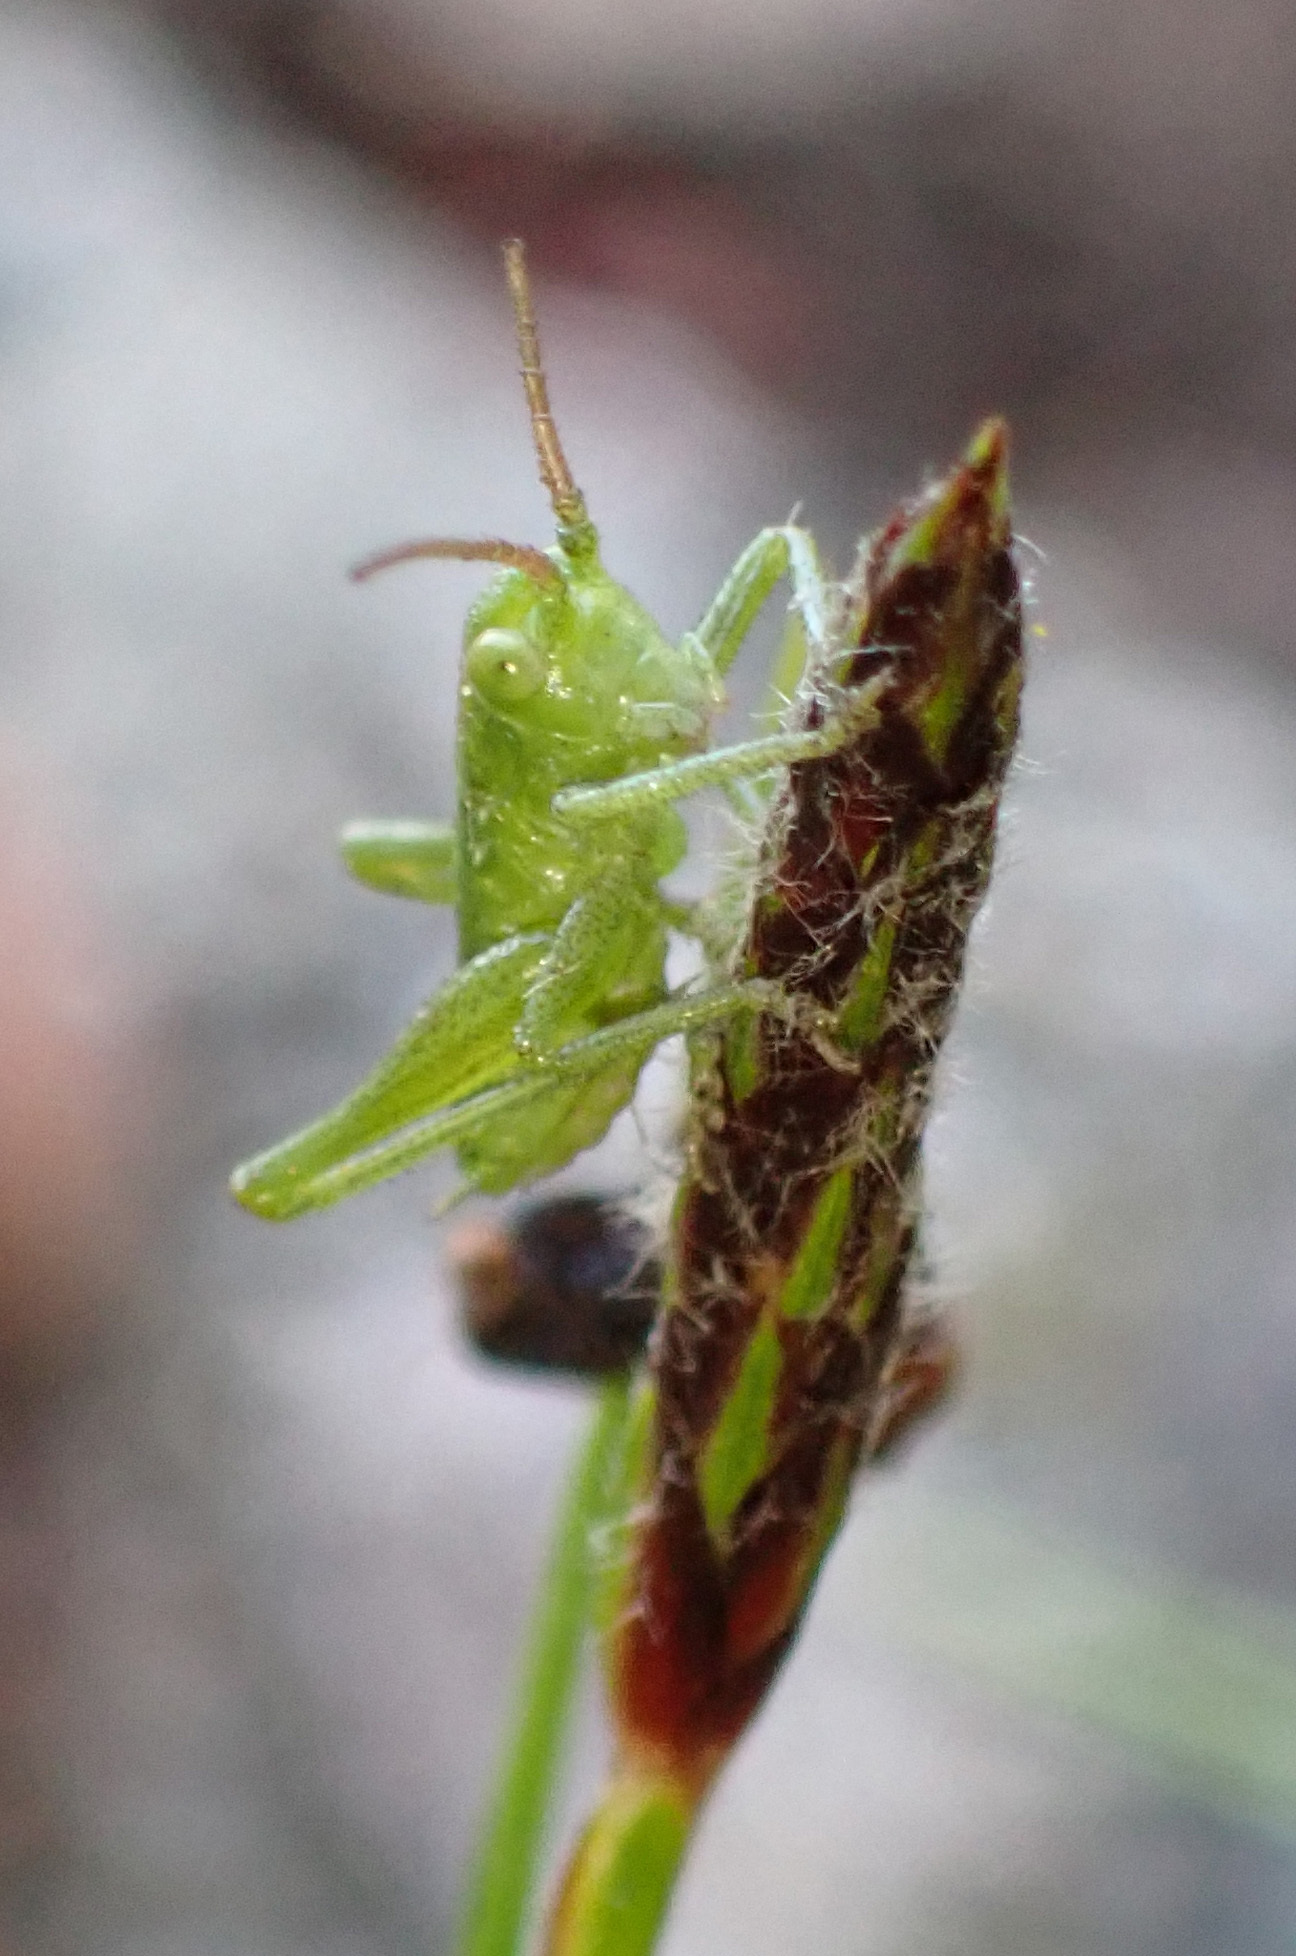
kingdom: Animalia
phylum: Arthropoda
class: Insecta
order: Orthoptera
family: Tettigoniidae
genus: Tettigonia
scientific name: Tettigonia viridissima
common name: Great green bush-cricket
